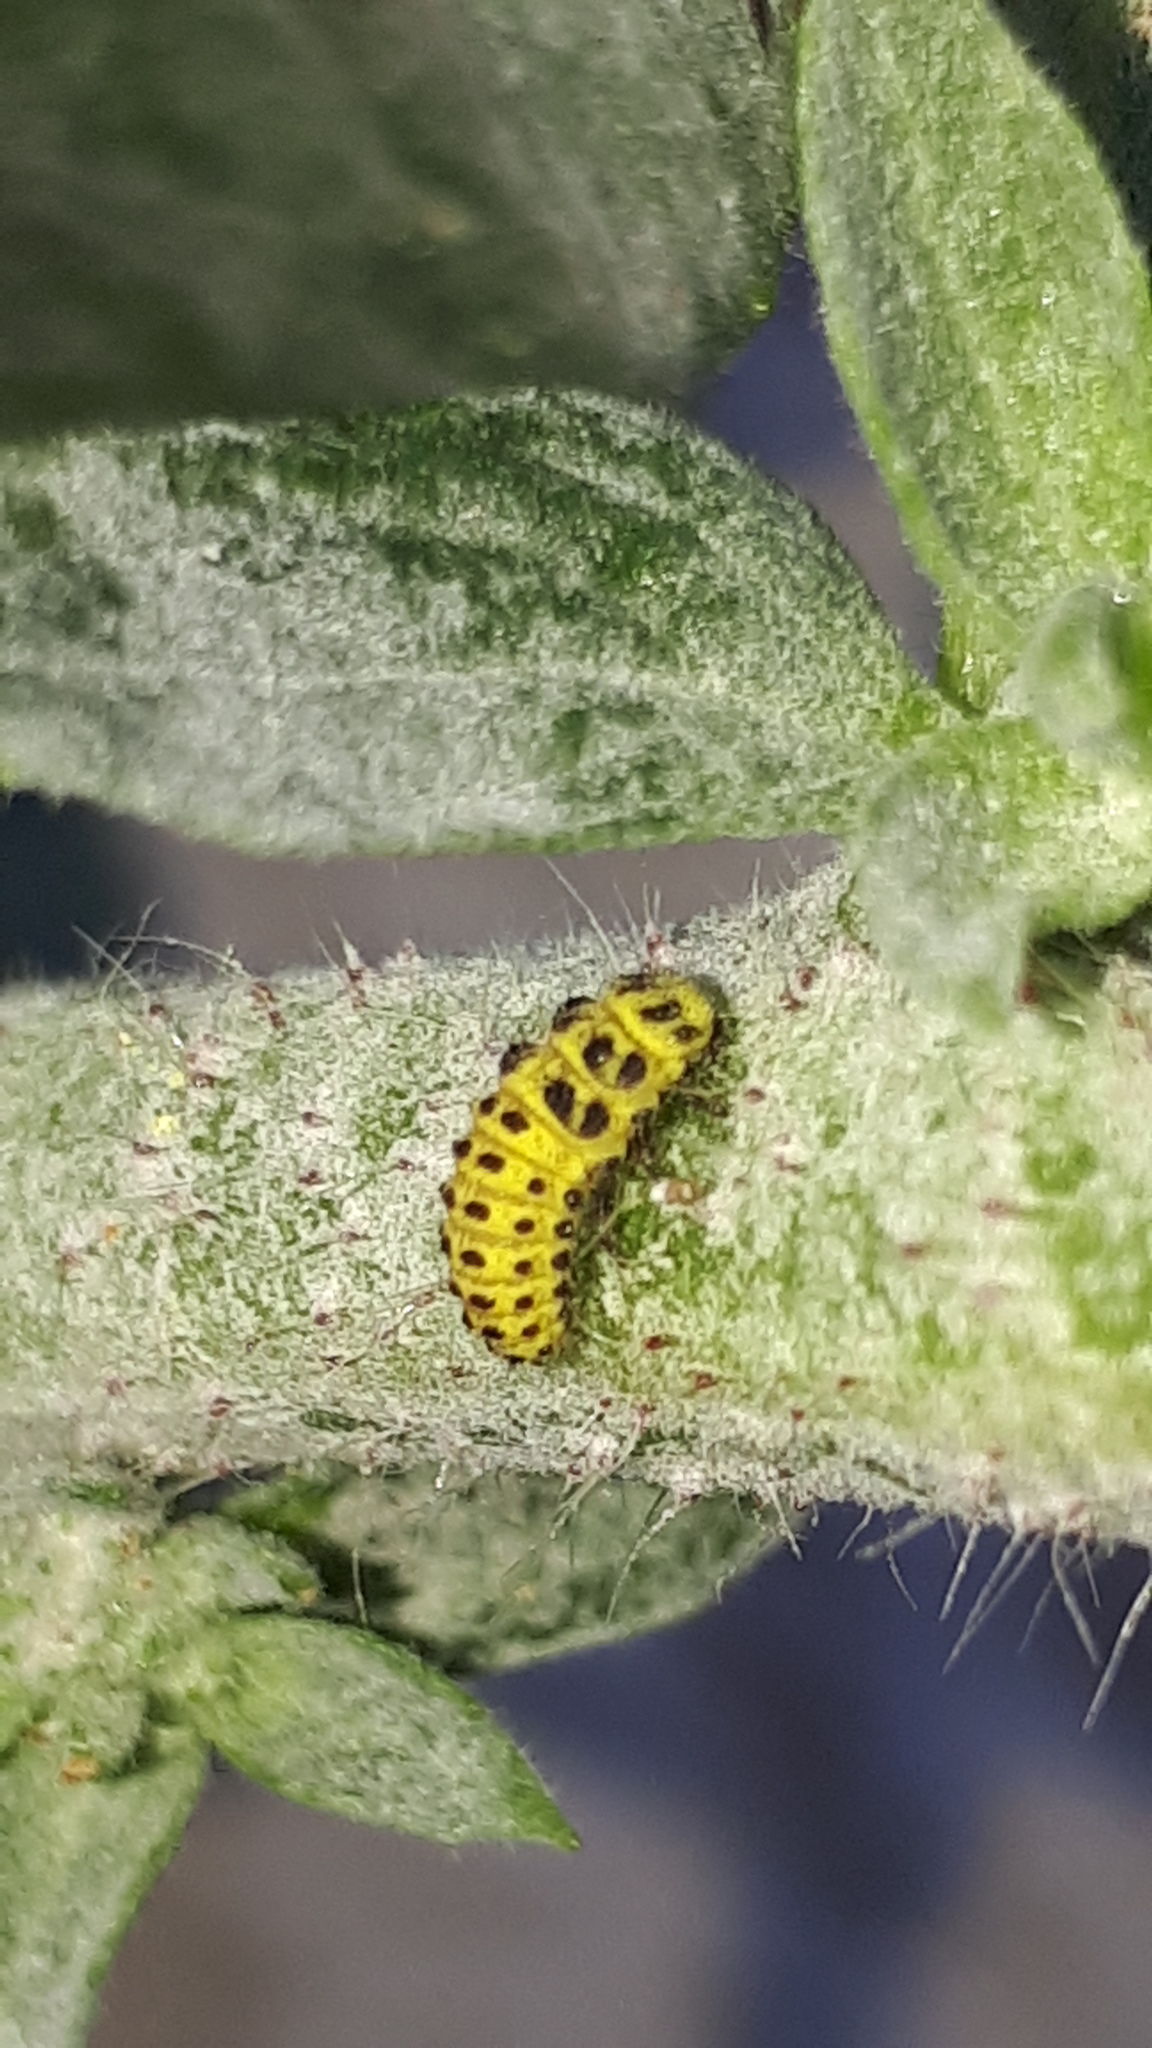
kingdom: Animalia
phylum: Arthropoda
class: Insecta
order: Coleoptera
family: Coccinellidae
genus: Psyllobora
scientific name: Psyllobora vigintiduopunctata
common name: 22-spot ladybird
